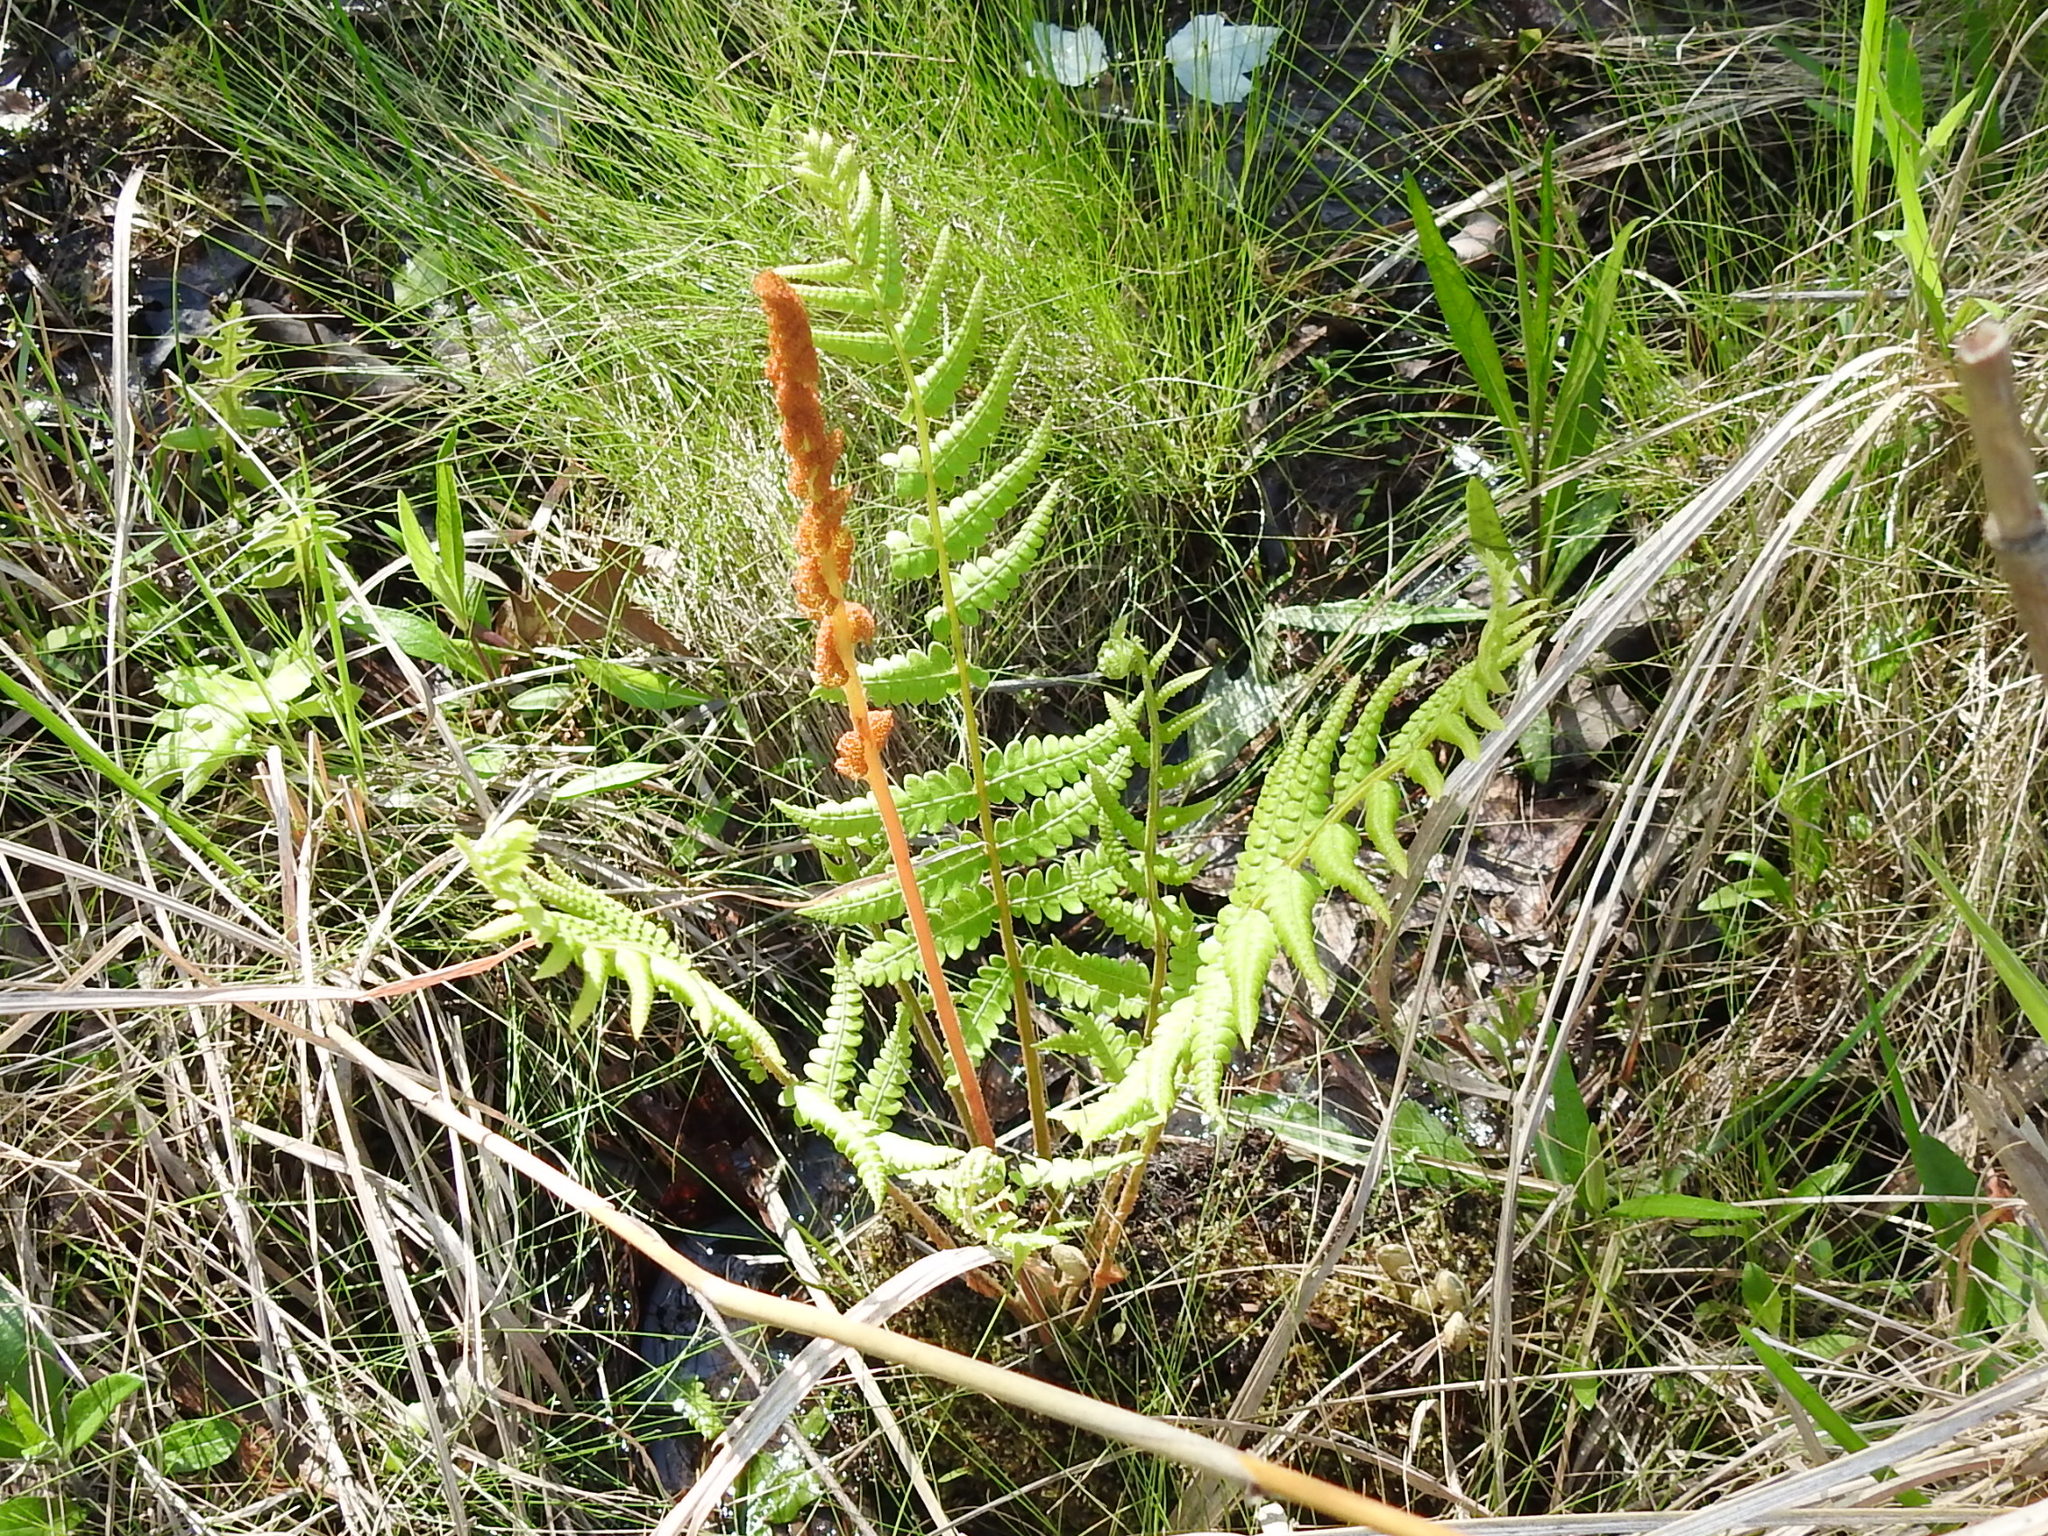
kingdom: Plantae
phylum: Tracheophyta
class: Polypodiopsida
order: Osmundales
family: Osmundaceae
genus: Osmundastrum
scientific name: Osmundastrum cinnamomeum
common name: Cinnamon fern
